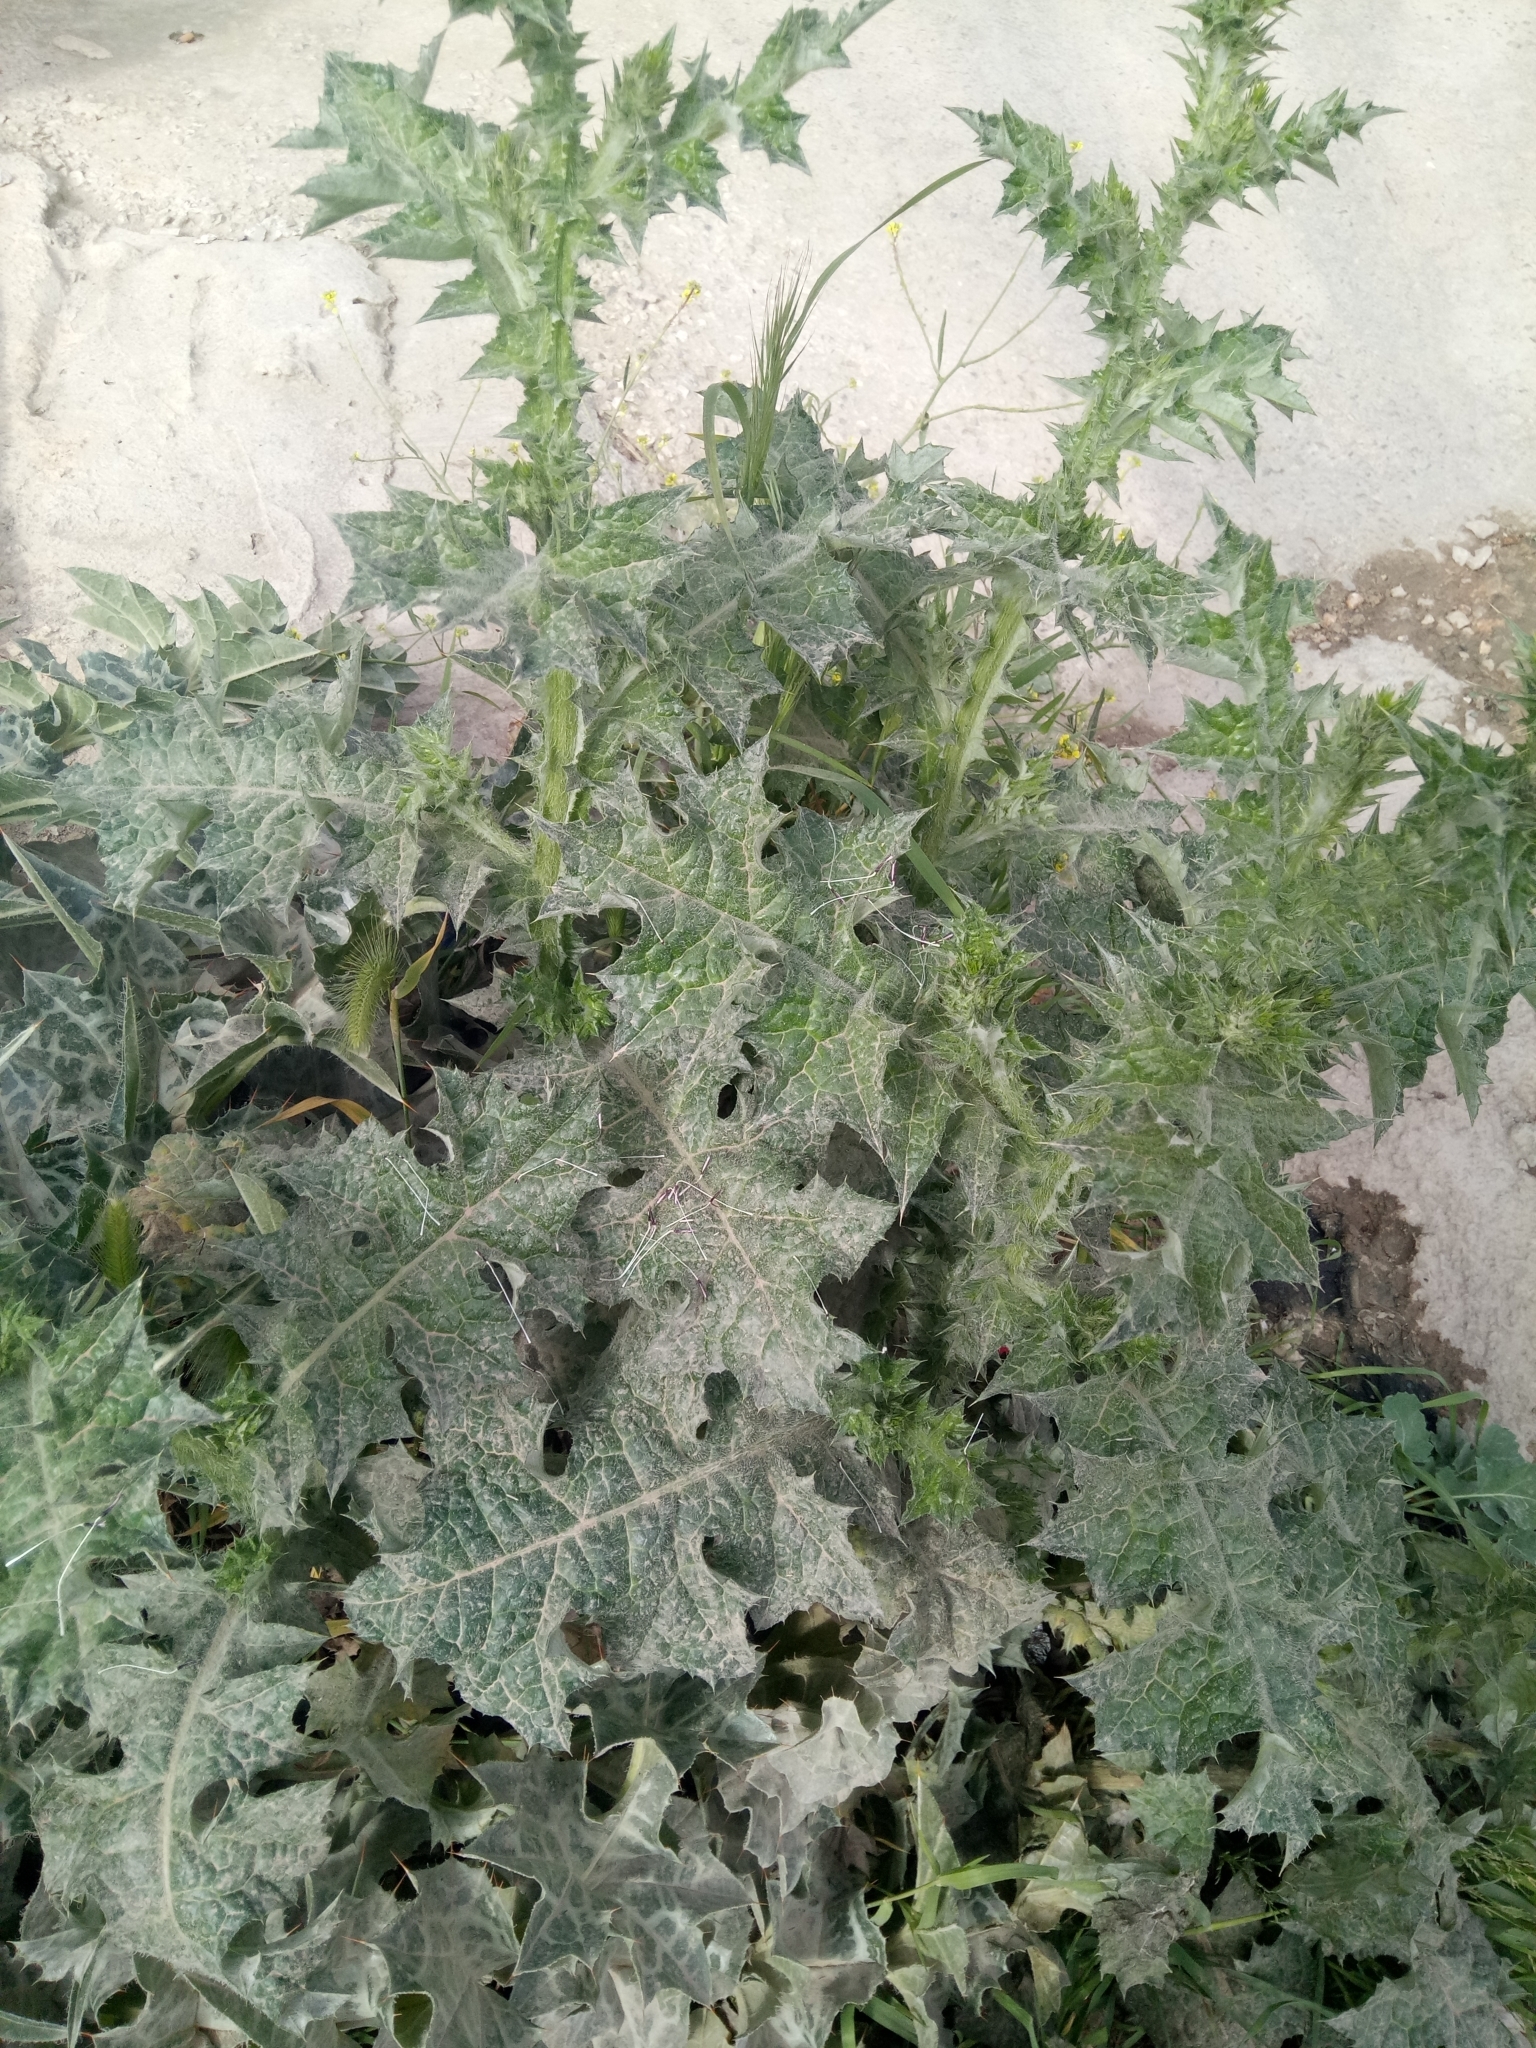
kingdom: Plantae
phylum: Tracheophyta
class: Magnoliopsida
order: Asterales
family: Asteraceae
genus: Carduus
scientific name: Carduus tenuiflorus
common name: Slender thistle
